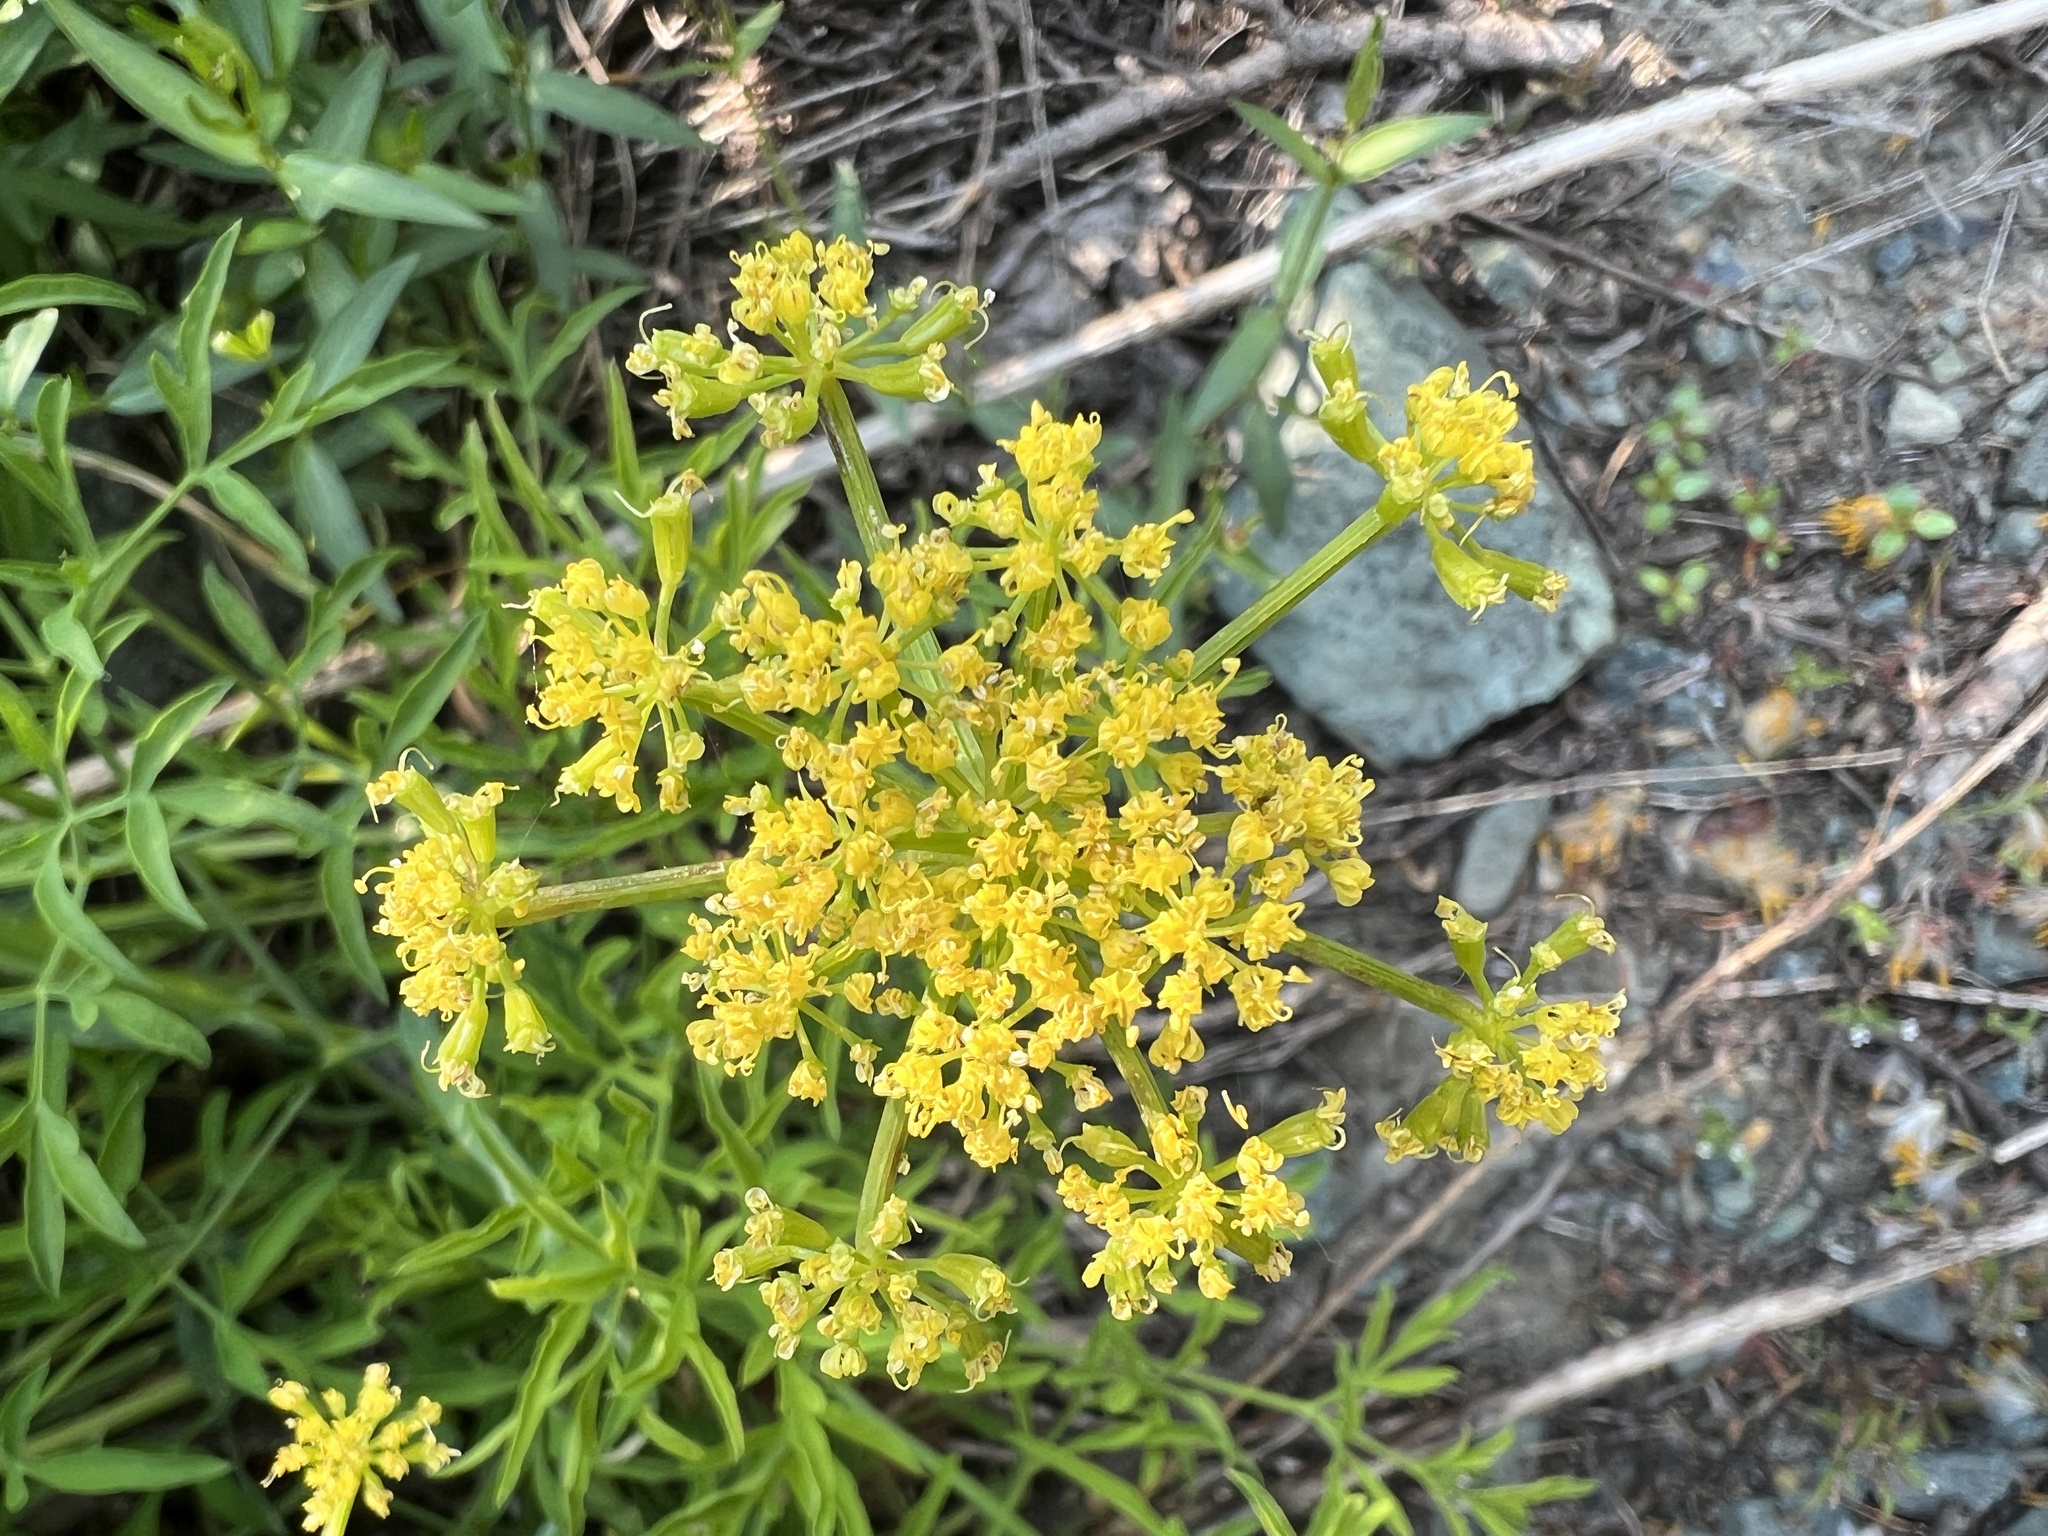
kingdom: Plantae
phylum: Tracheophyta
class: Magnoliopsida
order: Apiales
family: Apiaceae
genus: Lomatium
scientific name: Lomatium brandegeei
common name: Brandegee's desert-parsley
